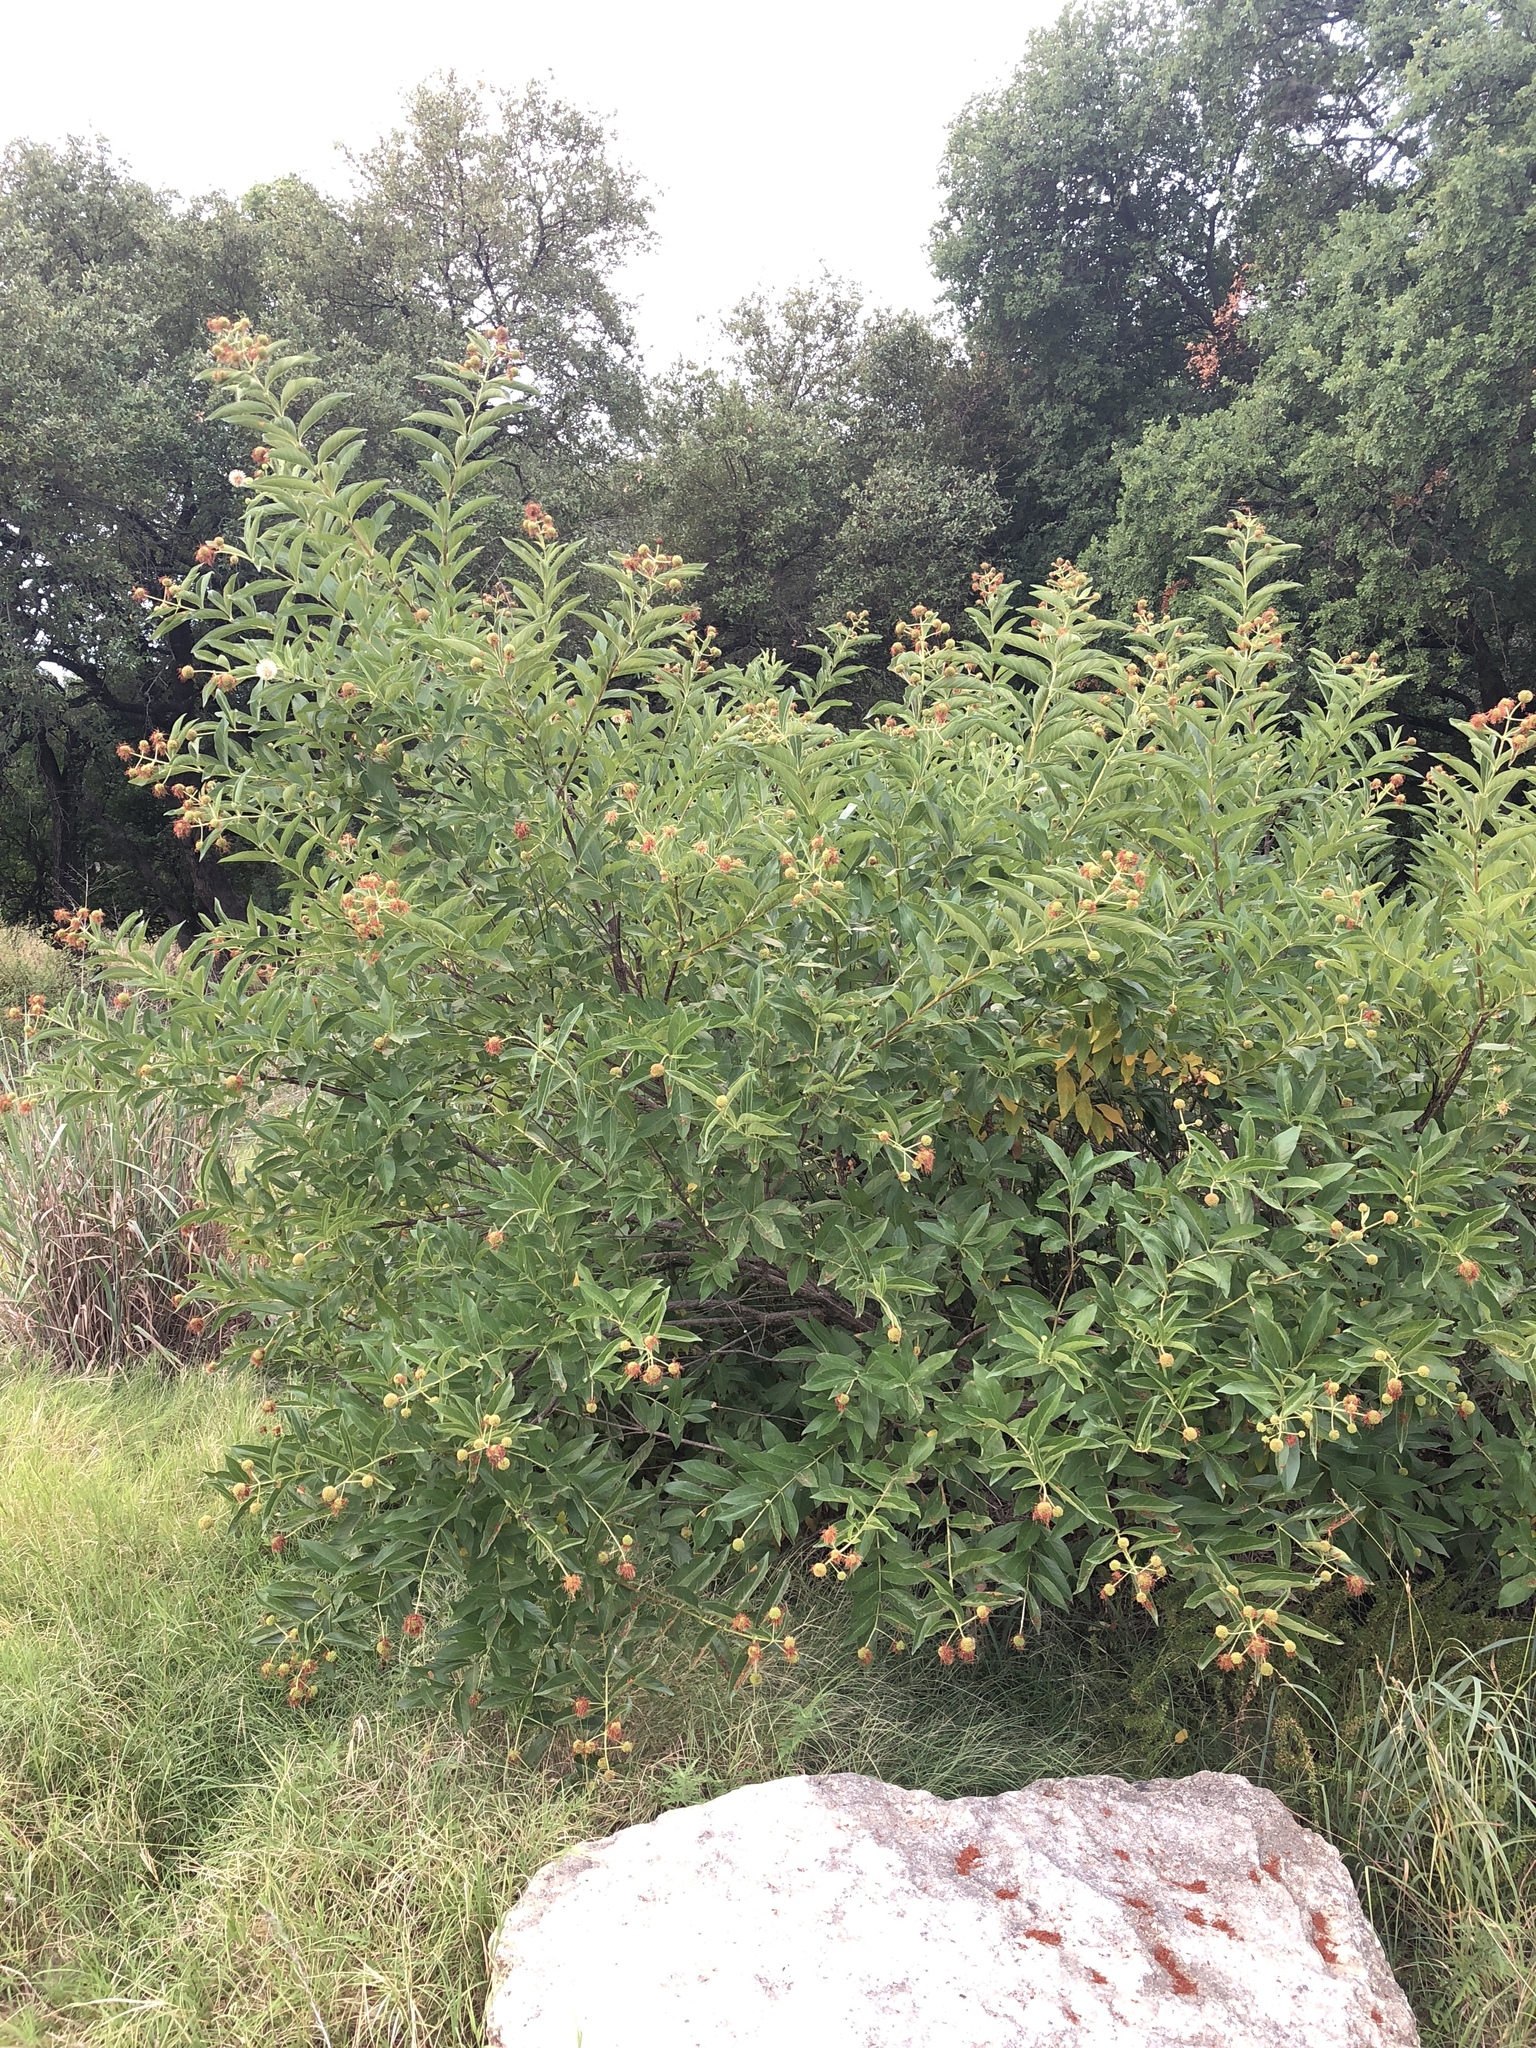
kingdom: Plantae
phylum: Tracheophyta
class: Magnoliopsida
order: Gentianales
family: Rubiaceae
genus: Cephalanthus
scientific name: Cephalanthus occidentalis
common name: Button-willow
